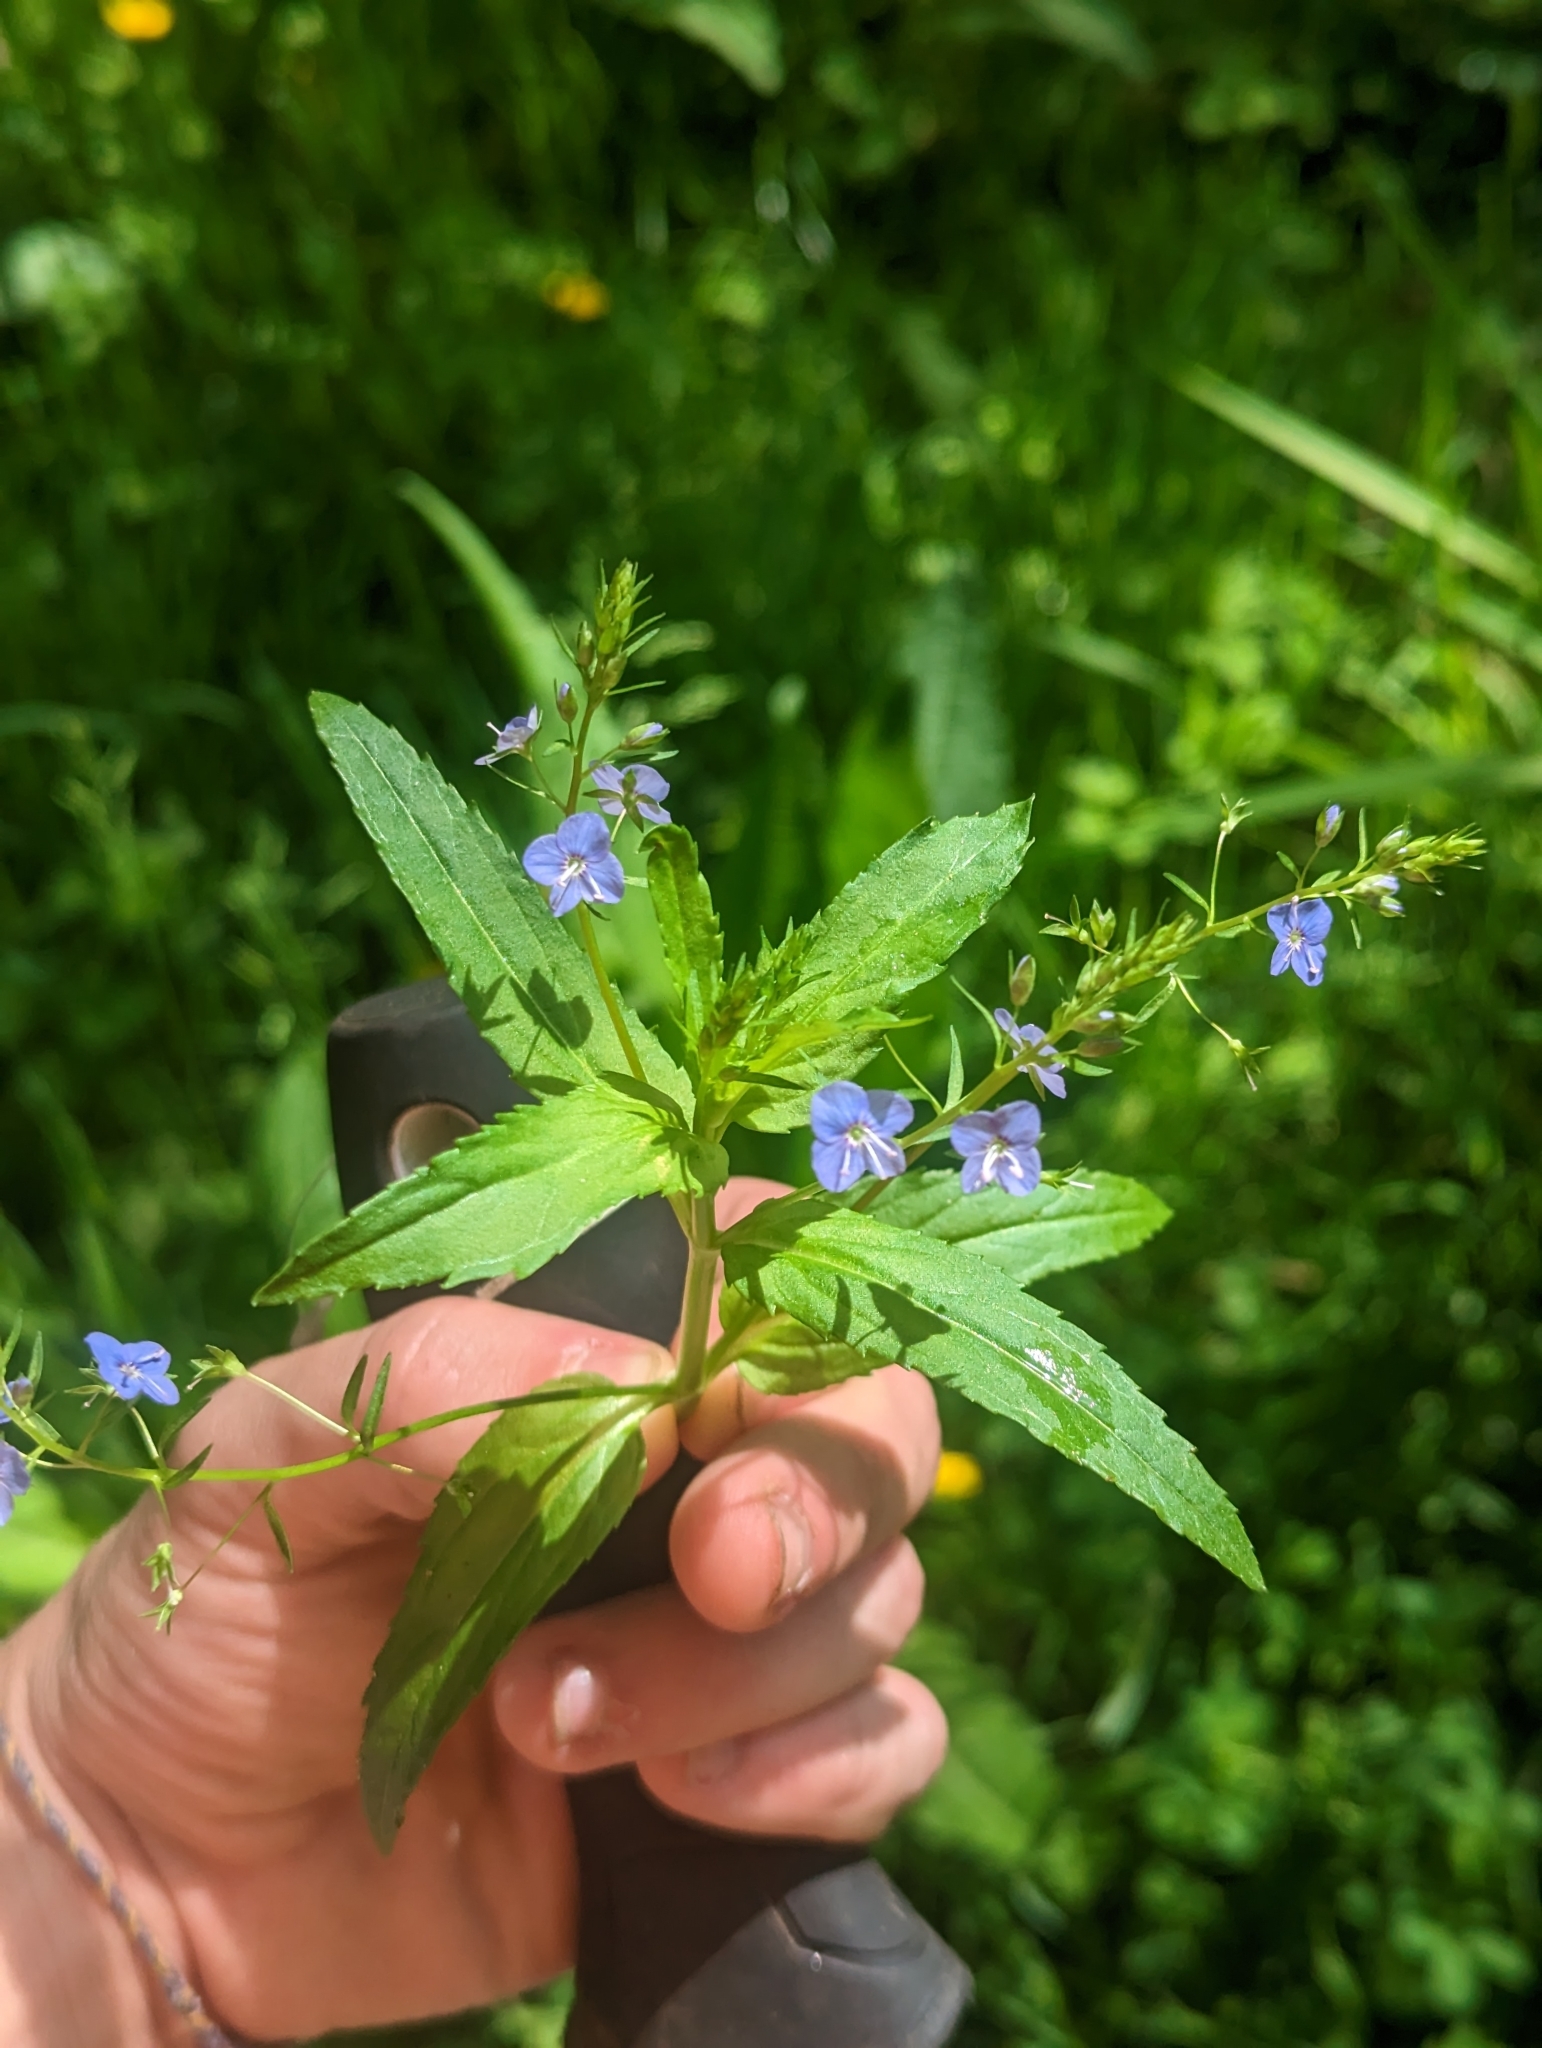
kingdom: Plantae
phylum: Tracheophyta
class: Magnoliopsida
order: Lamiales
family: Plantaginaceae
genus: Veronica
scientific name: Veronica americana
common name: American brooklime
